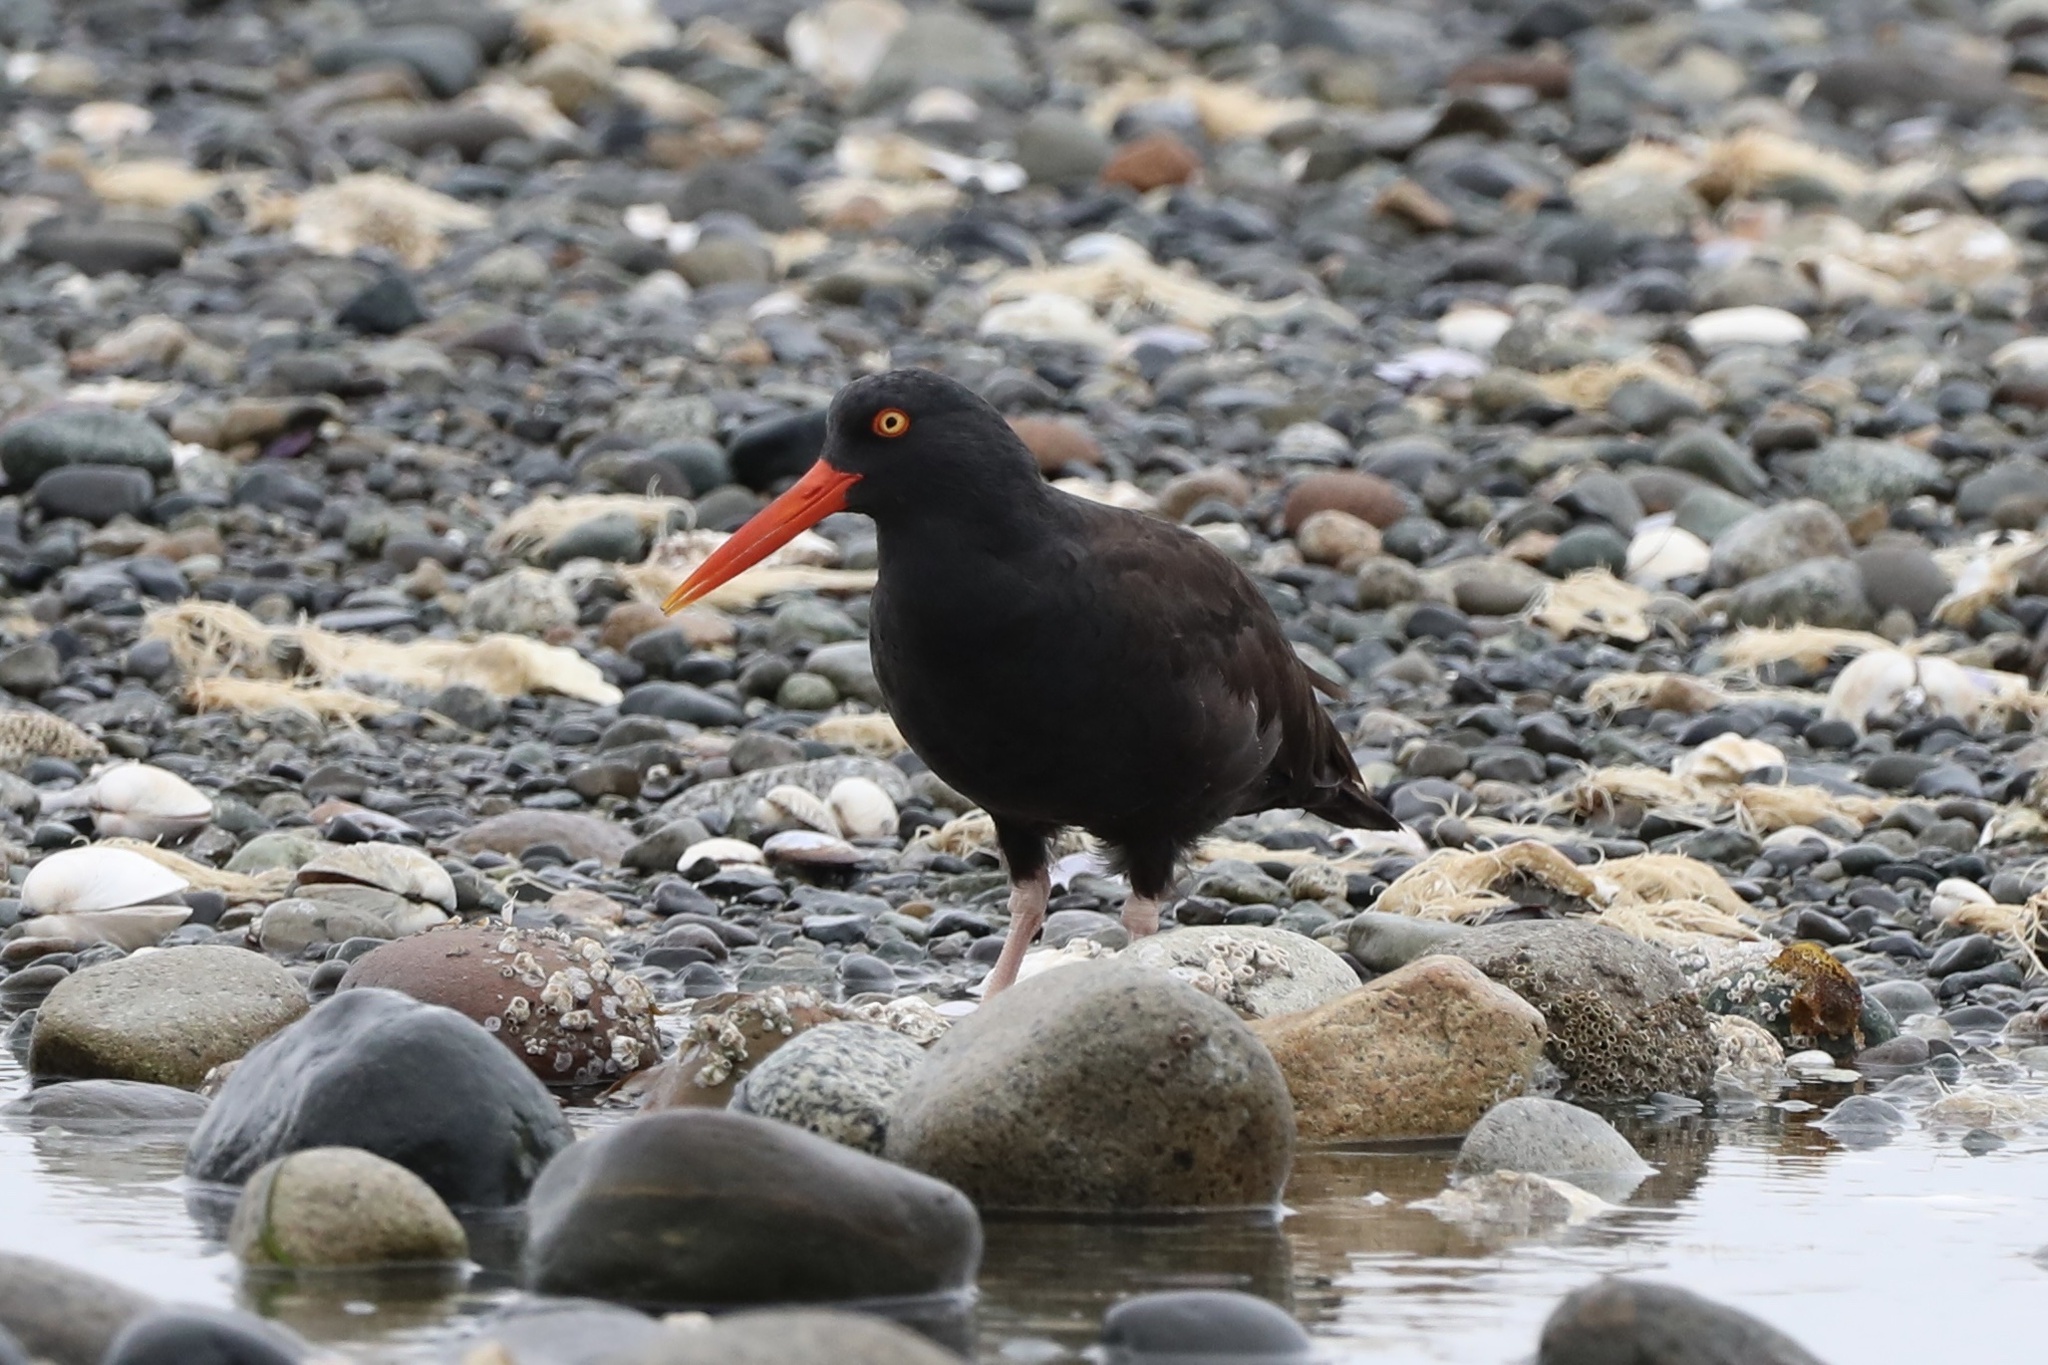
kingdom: Animalia
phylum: Chordata
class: Aves
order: Charadriiformes
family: Haematopodidae
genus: Haematopus
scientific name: Haematopus bachmani
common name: Black oystercatcher
